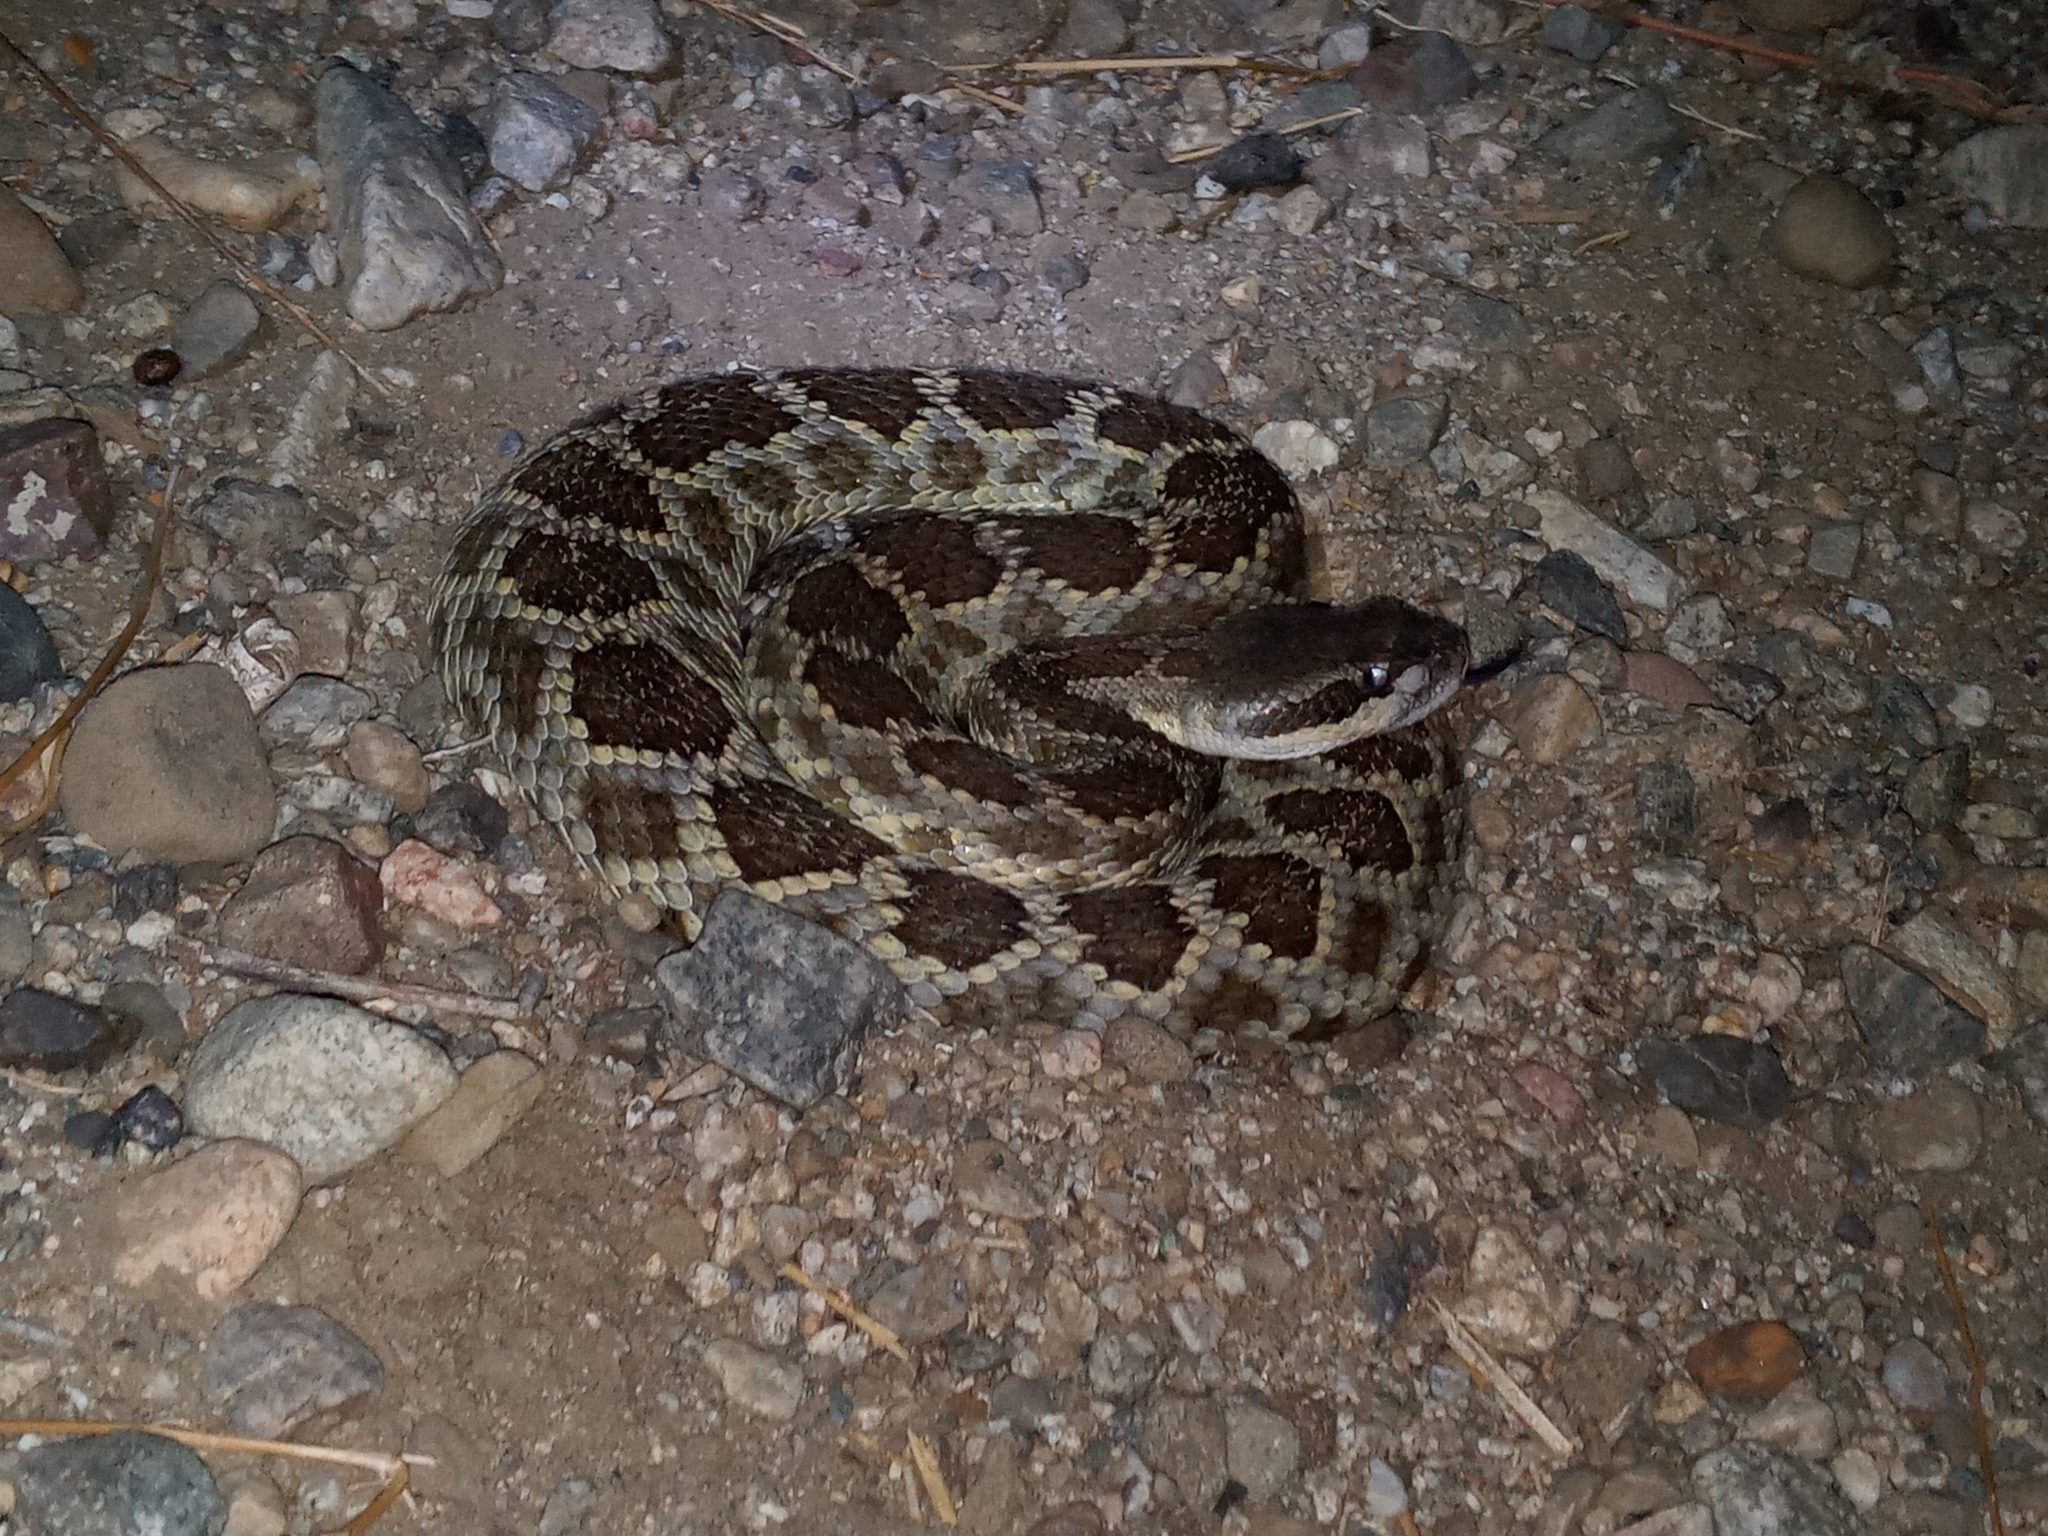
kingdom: Animalia
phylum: Chordata
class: Squamata
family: Viperidae
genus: Crotalus
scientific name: Crotalus oreganus
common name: Abyssus
